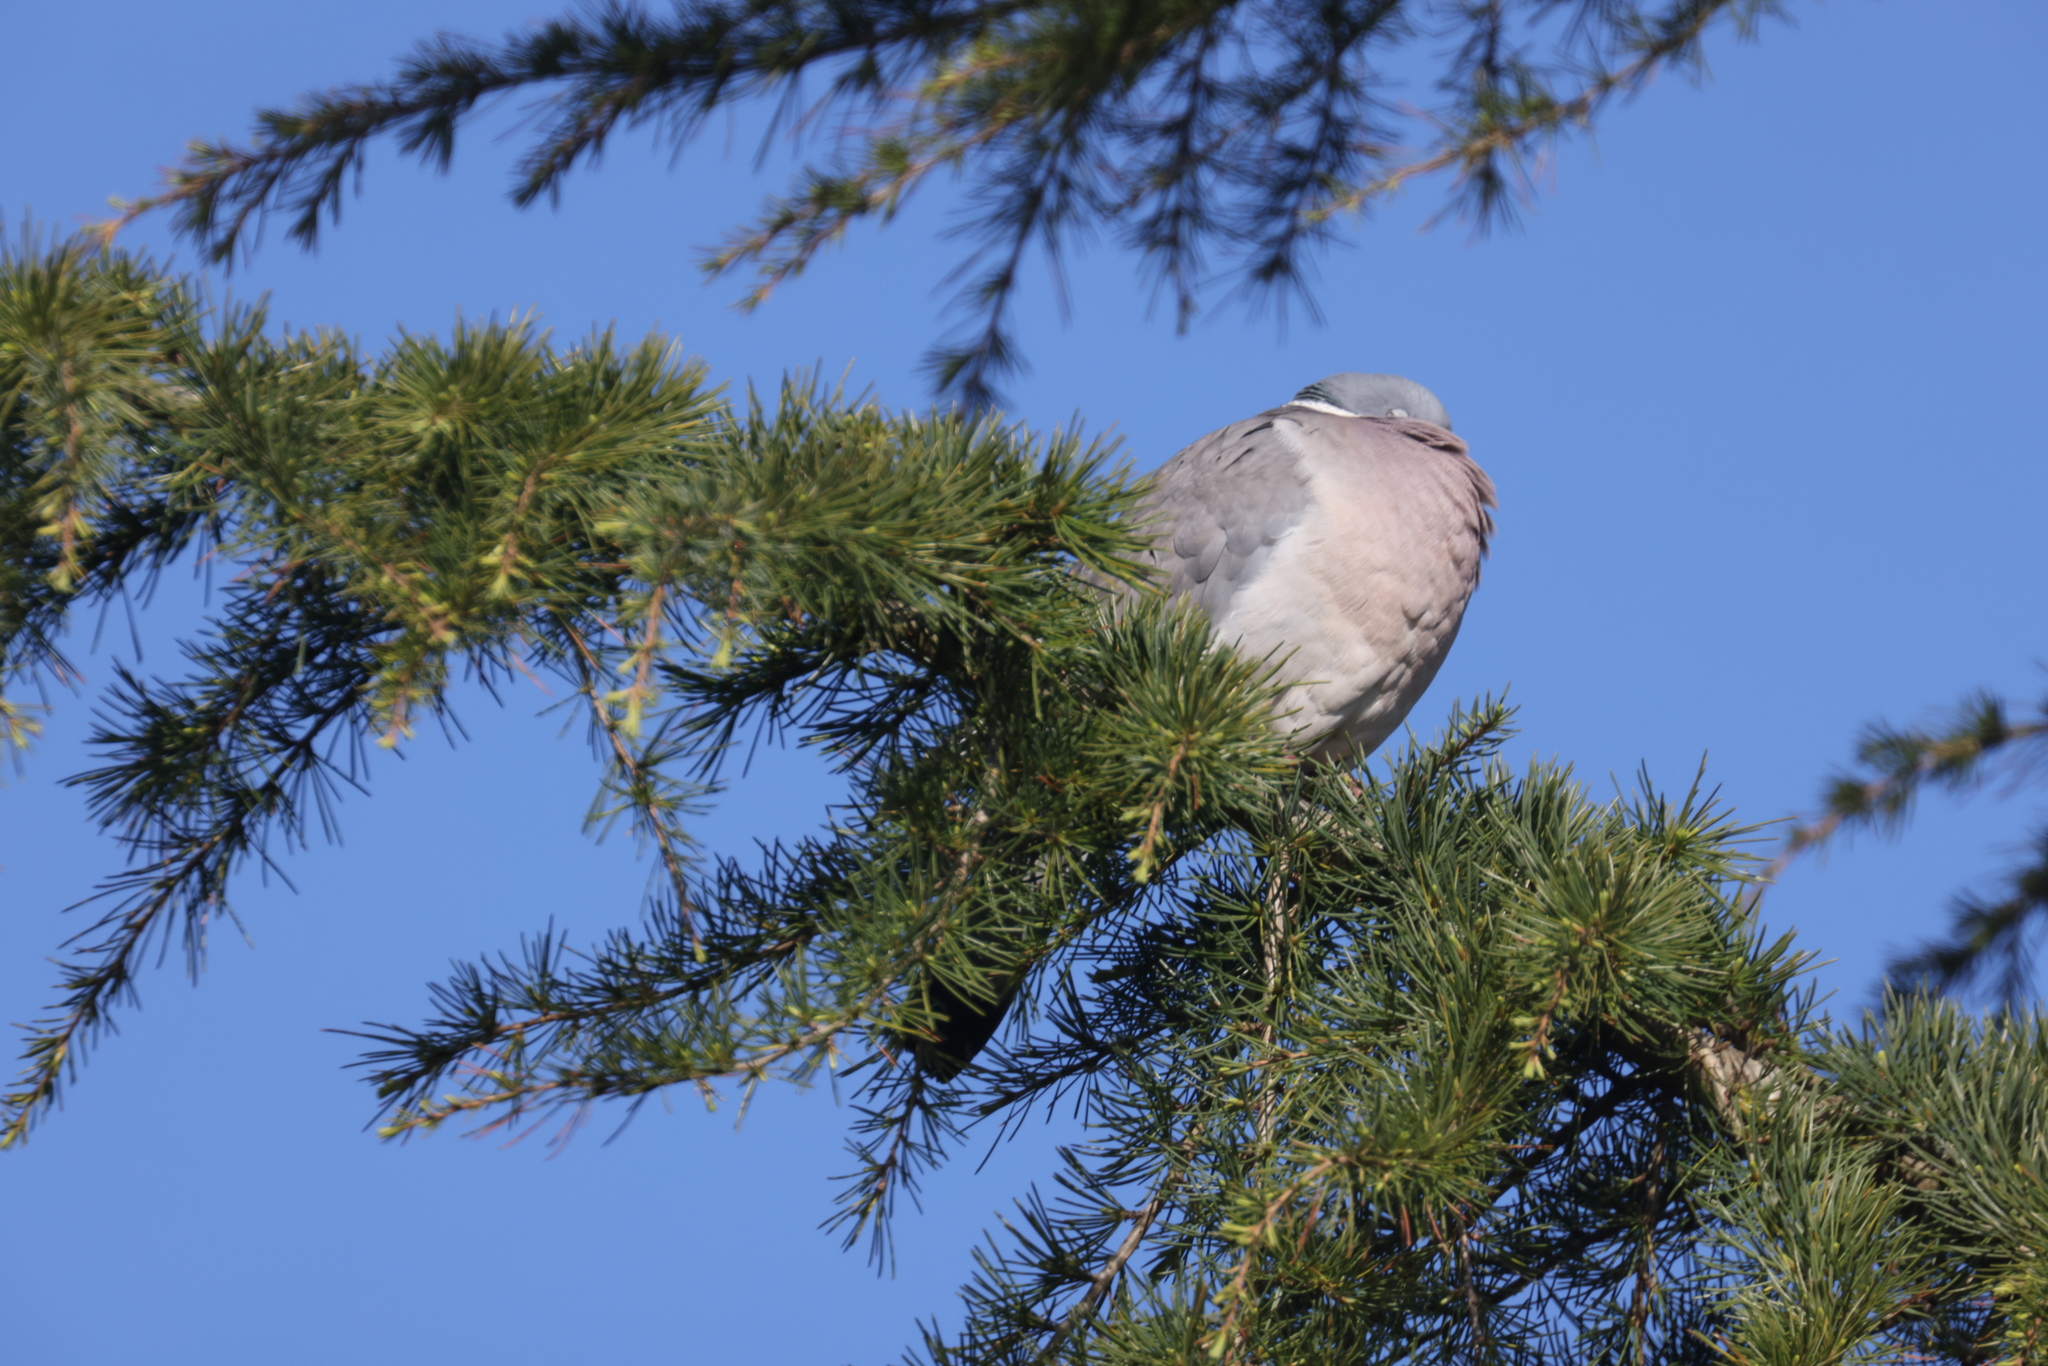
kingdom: Animalia
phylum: Chordata
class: Aves
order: Columbiformes
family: Columbidae
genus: Columba
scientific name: Columba palumbus
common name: Common wood pigeon
